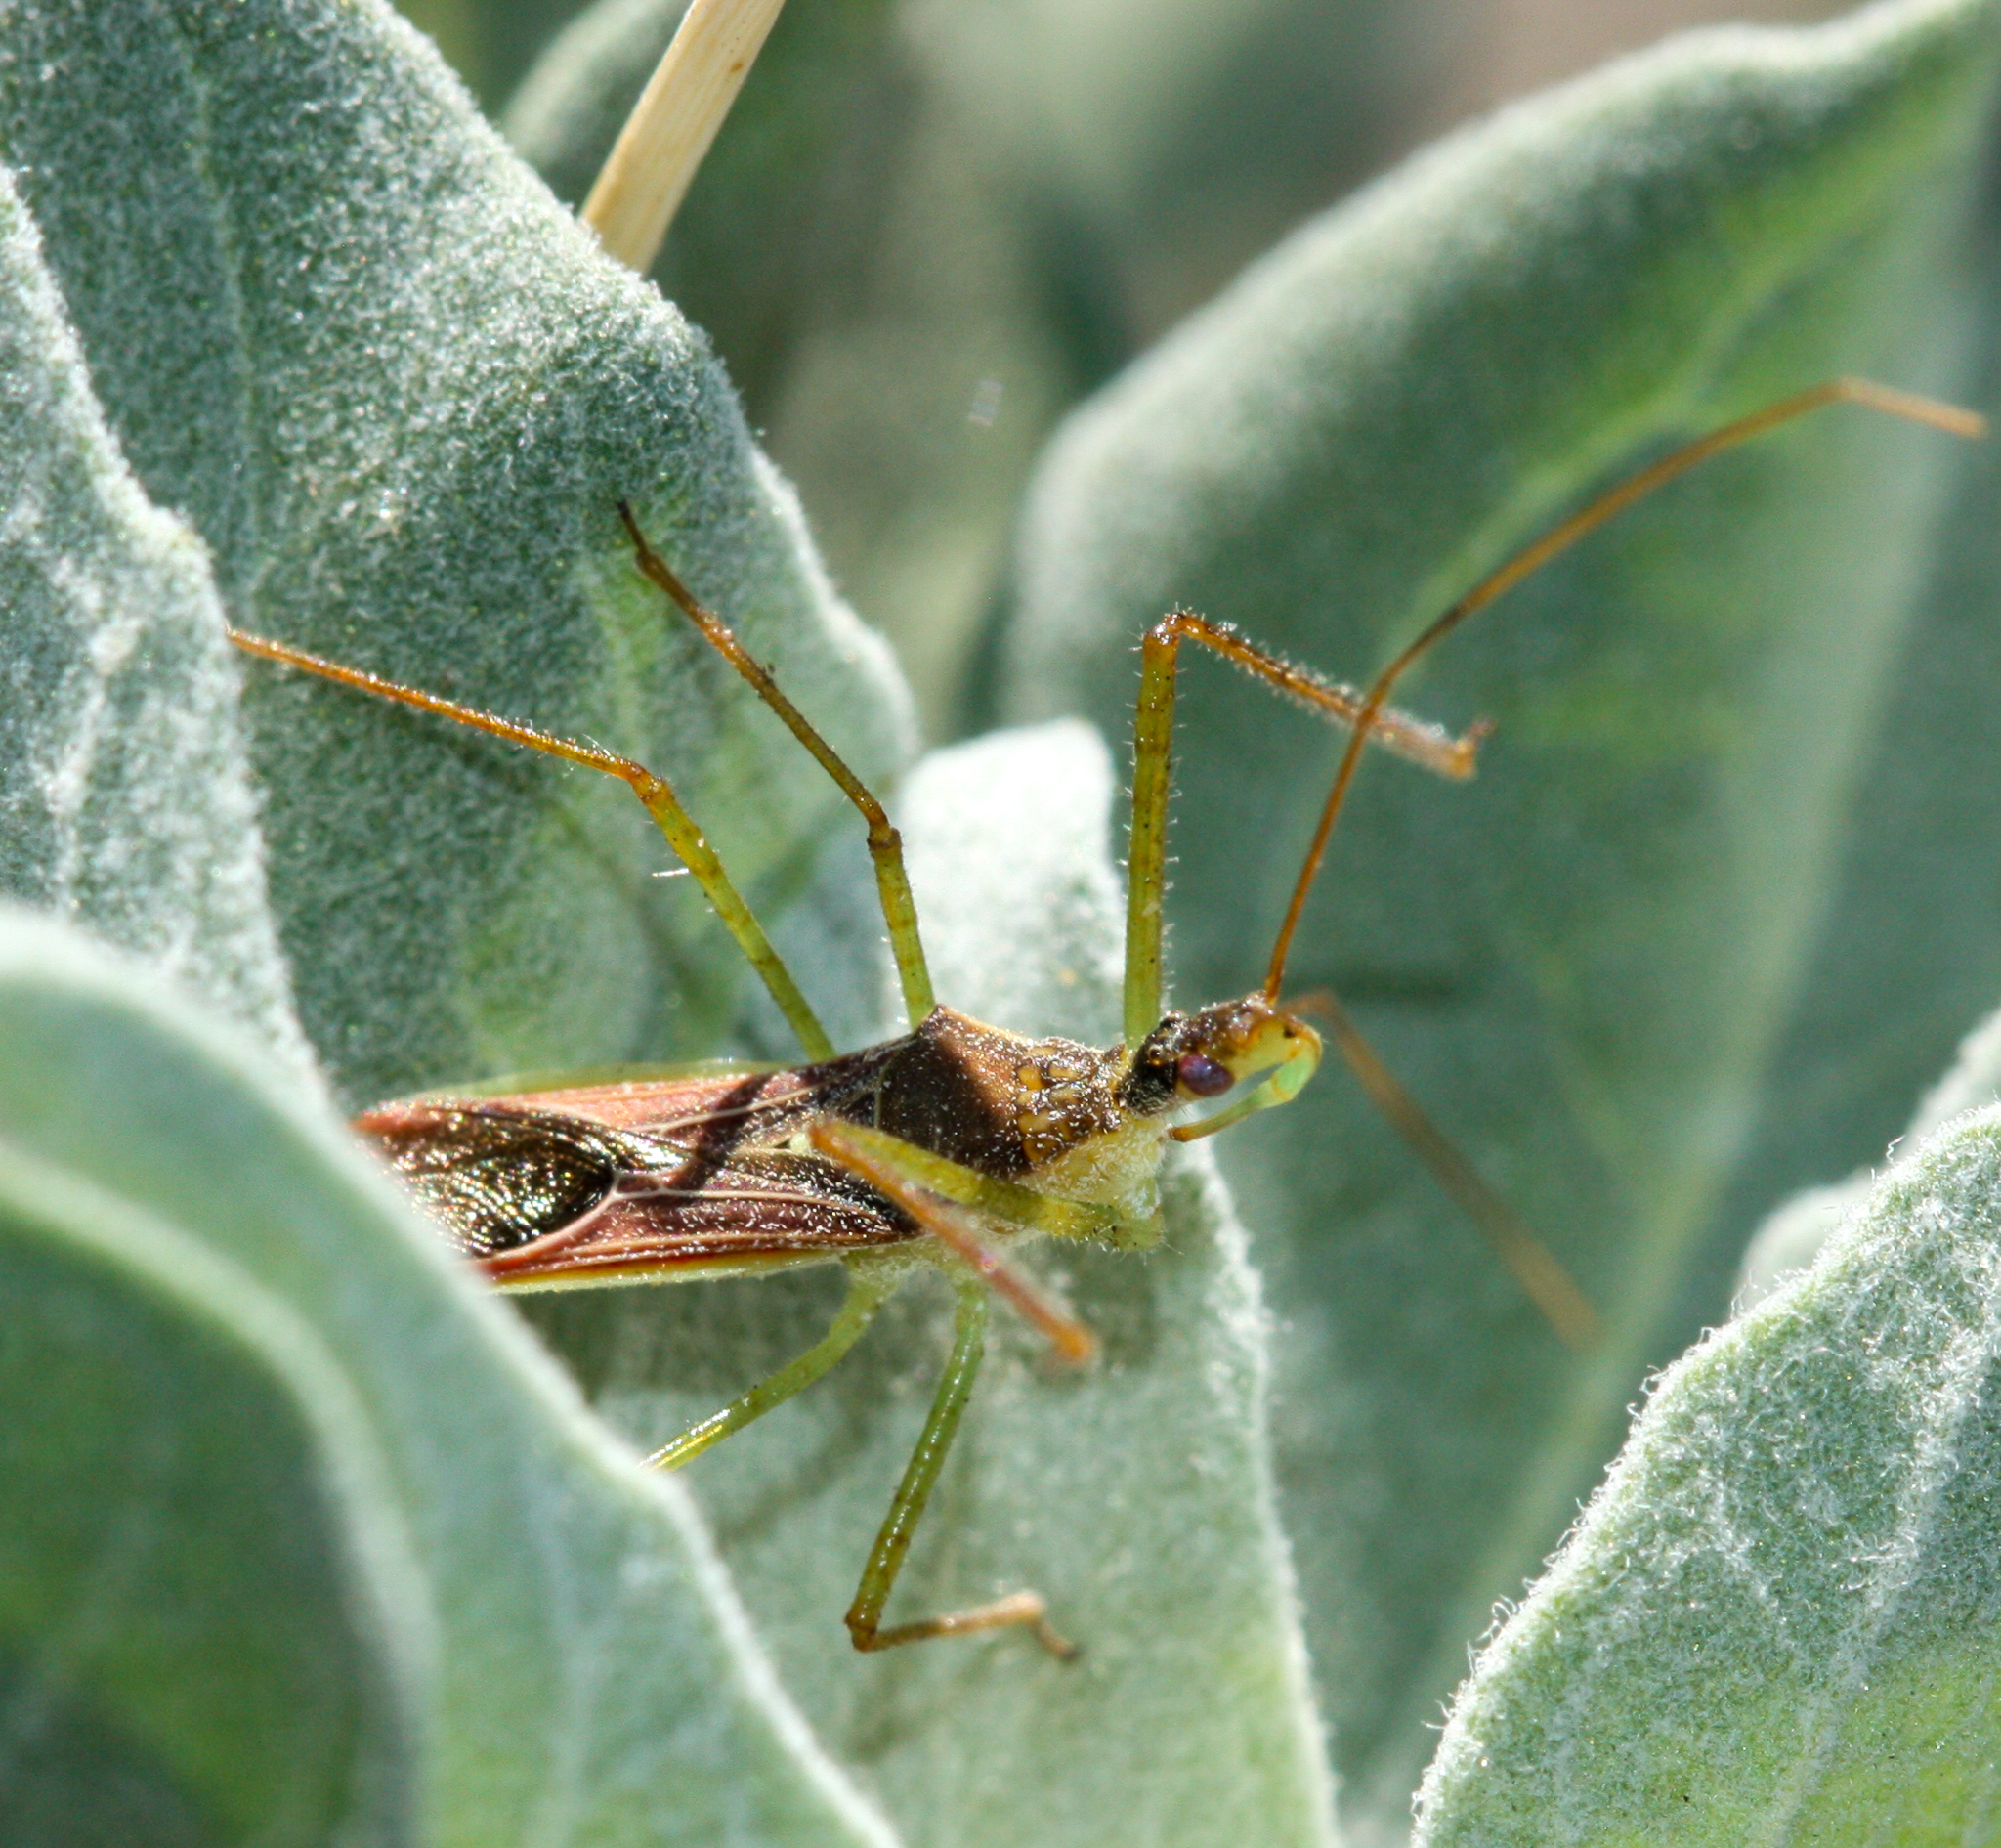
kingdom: Animalia
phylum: Arthropoda
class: Insecta
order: Hemiptera
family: Reduviidae
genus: Zelus
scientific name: Zelus renardii
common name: Assassin bug
